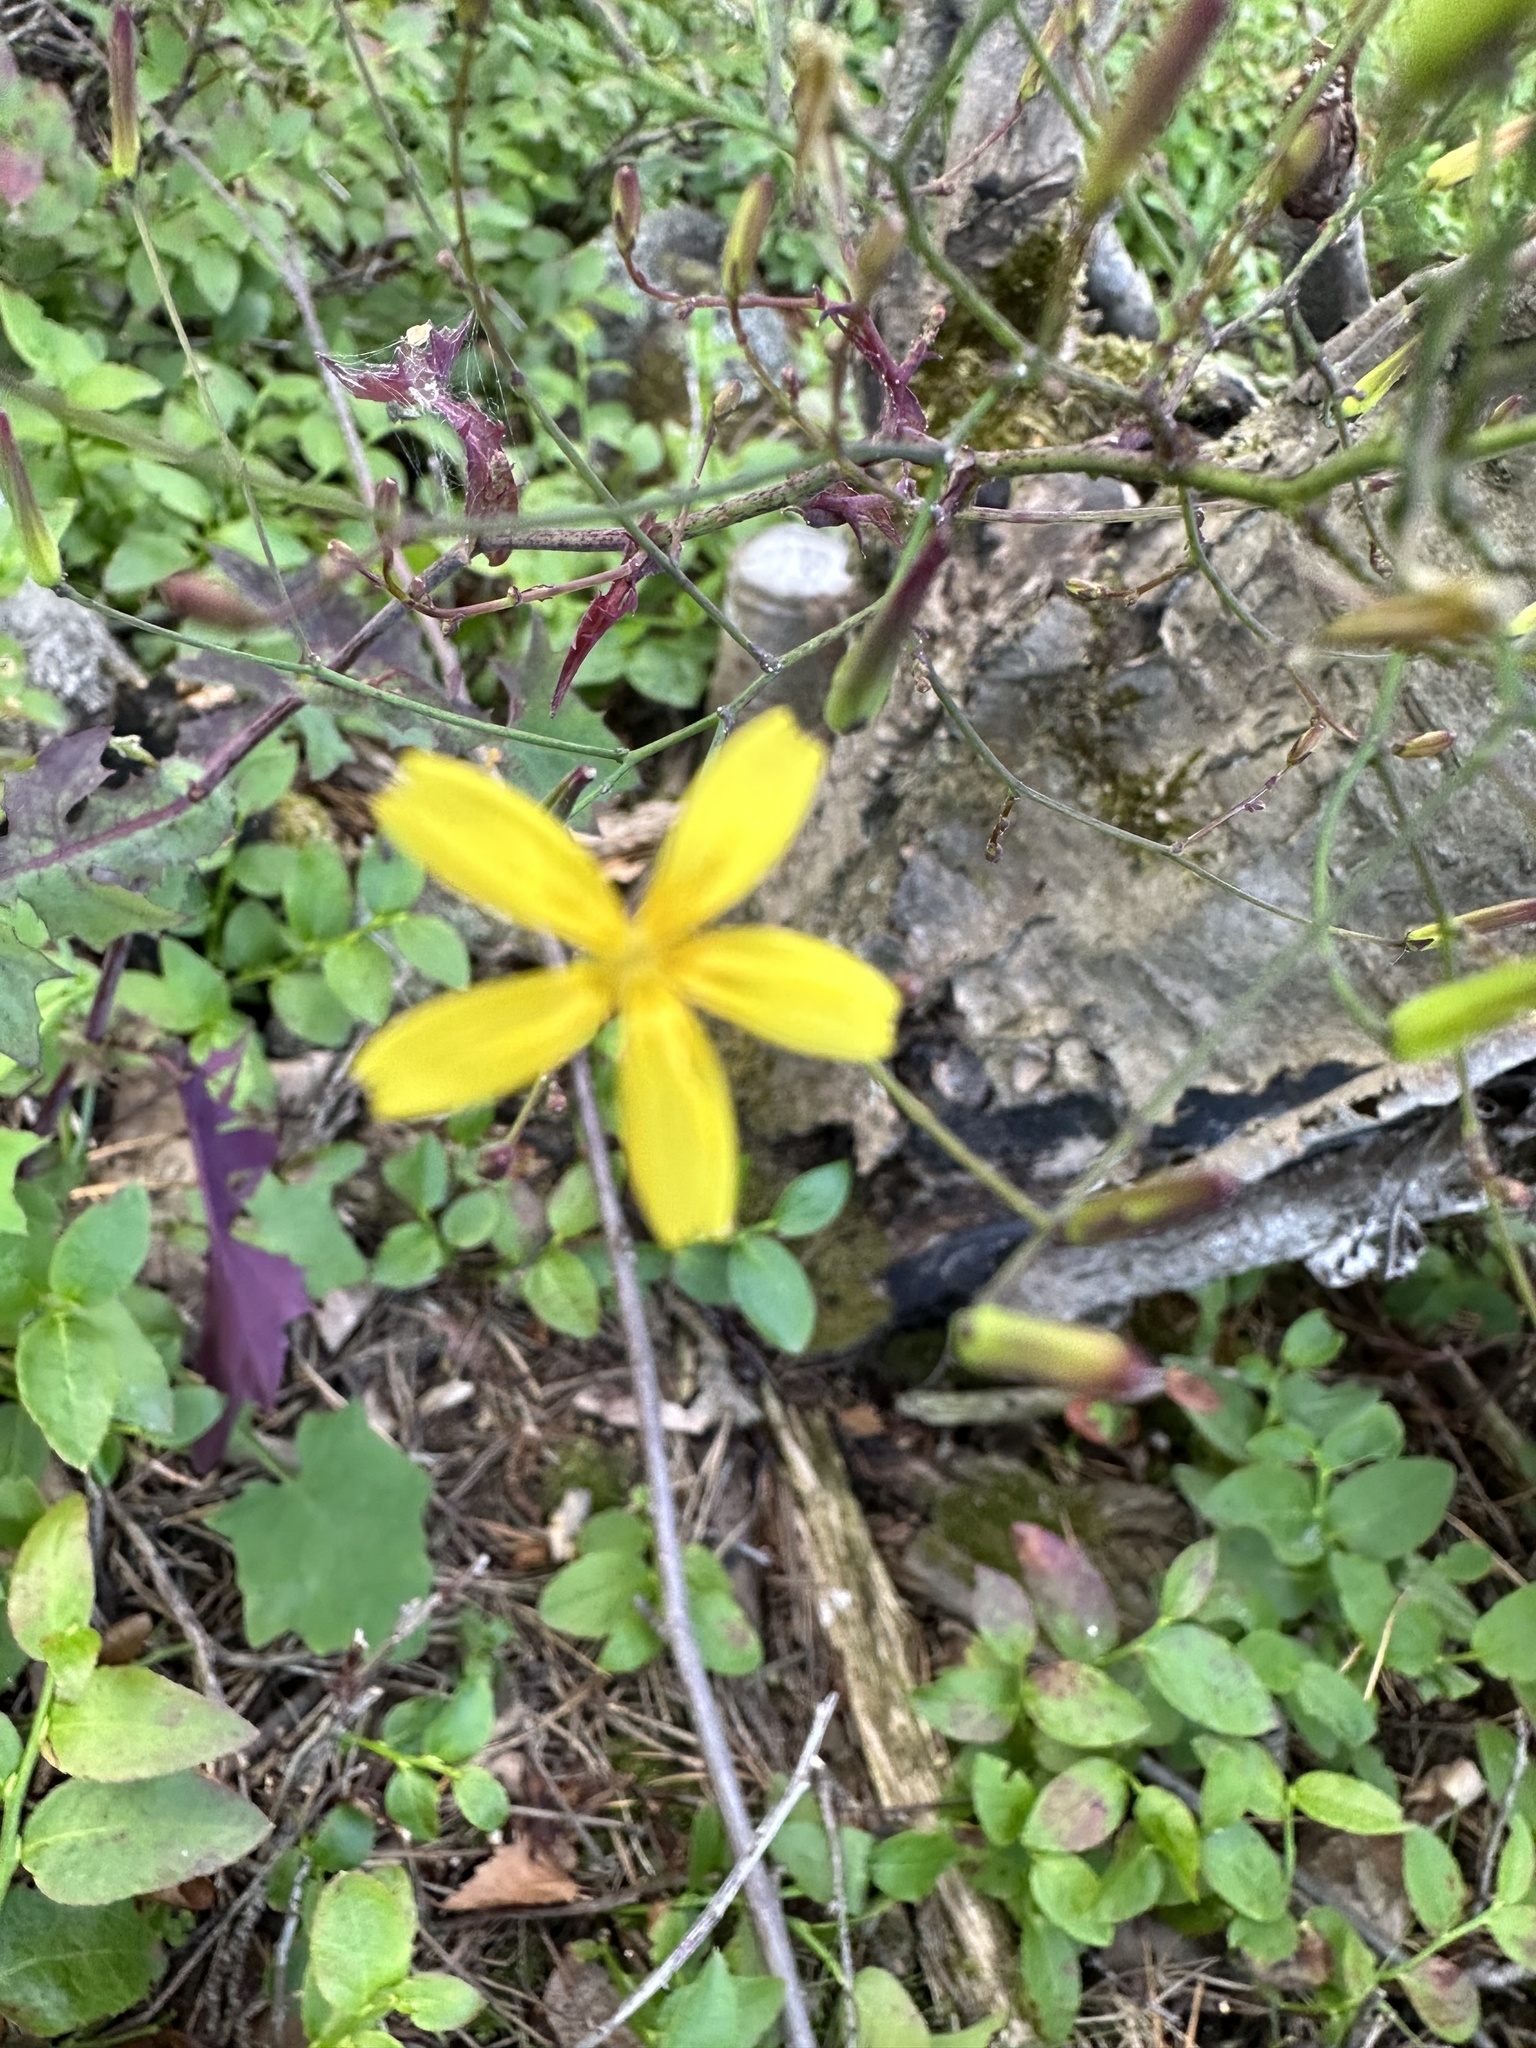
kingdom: Plantae
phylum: Tracheophyta
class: Magnoliopsida
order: Asterales
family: Asteraceae
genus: Mycelis
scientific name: Mycelis muralis
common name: Wall lettuce
